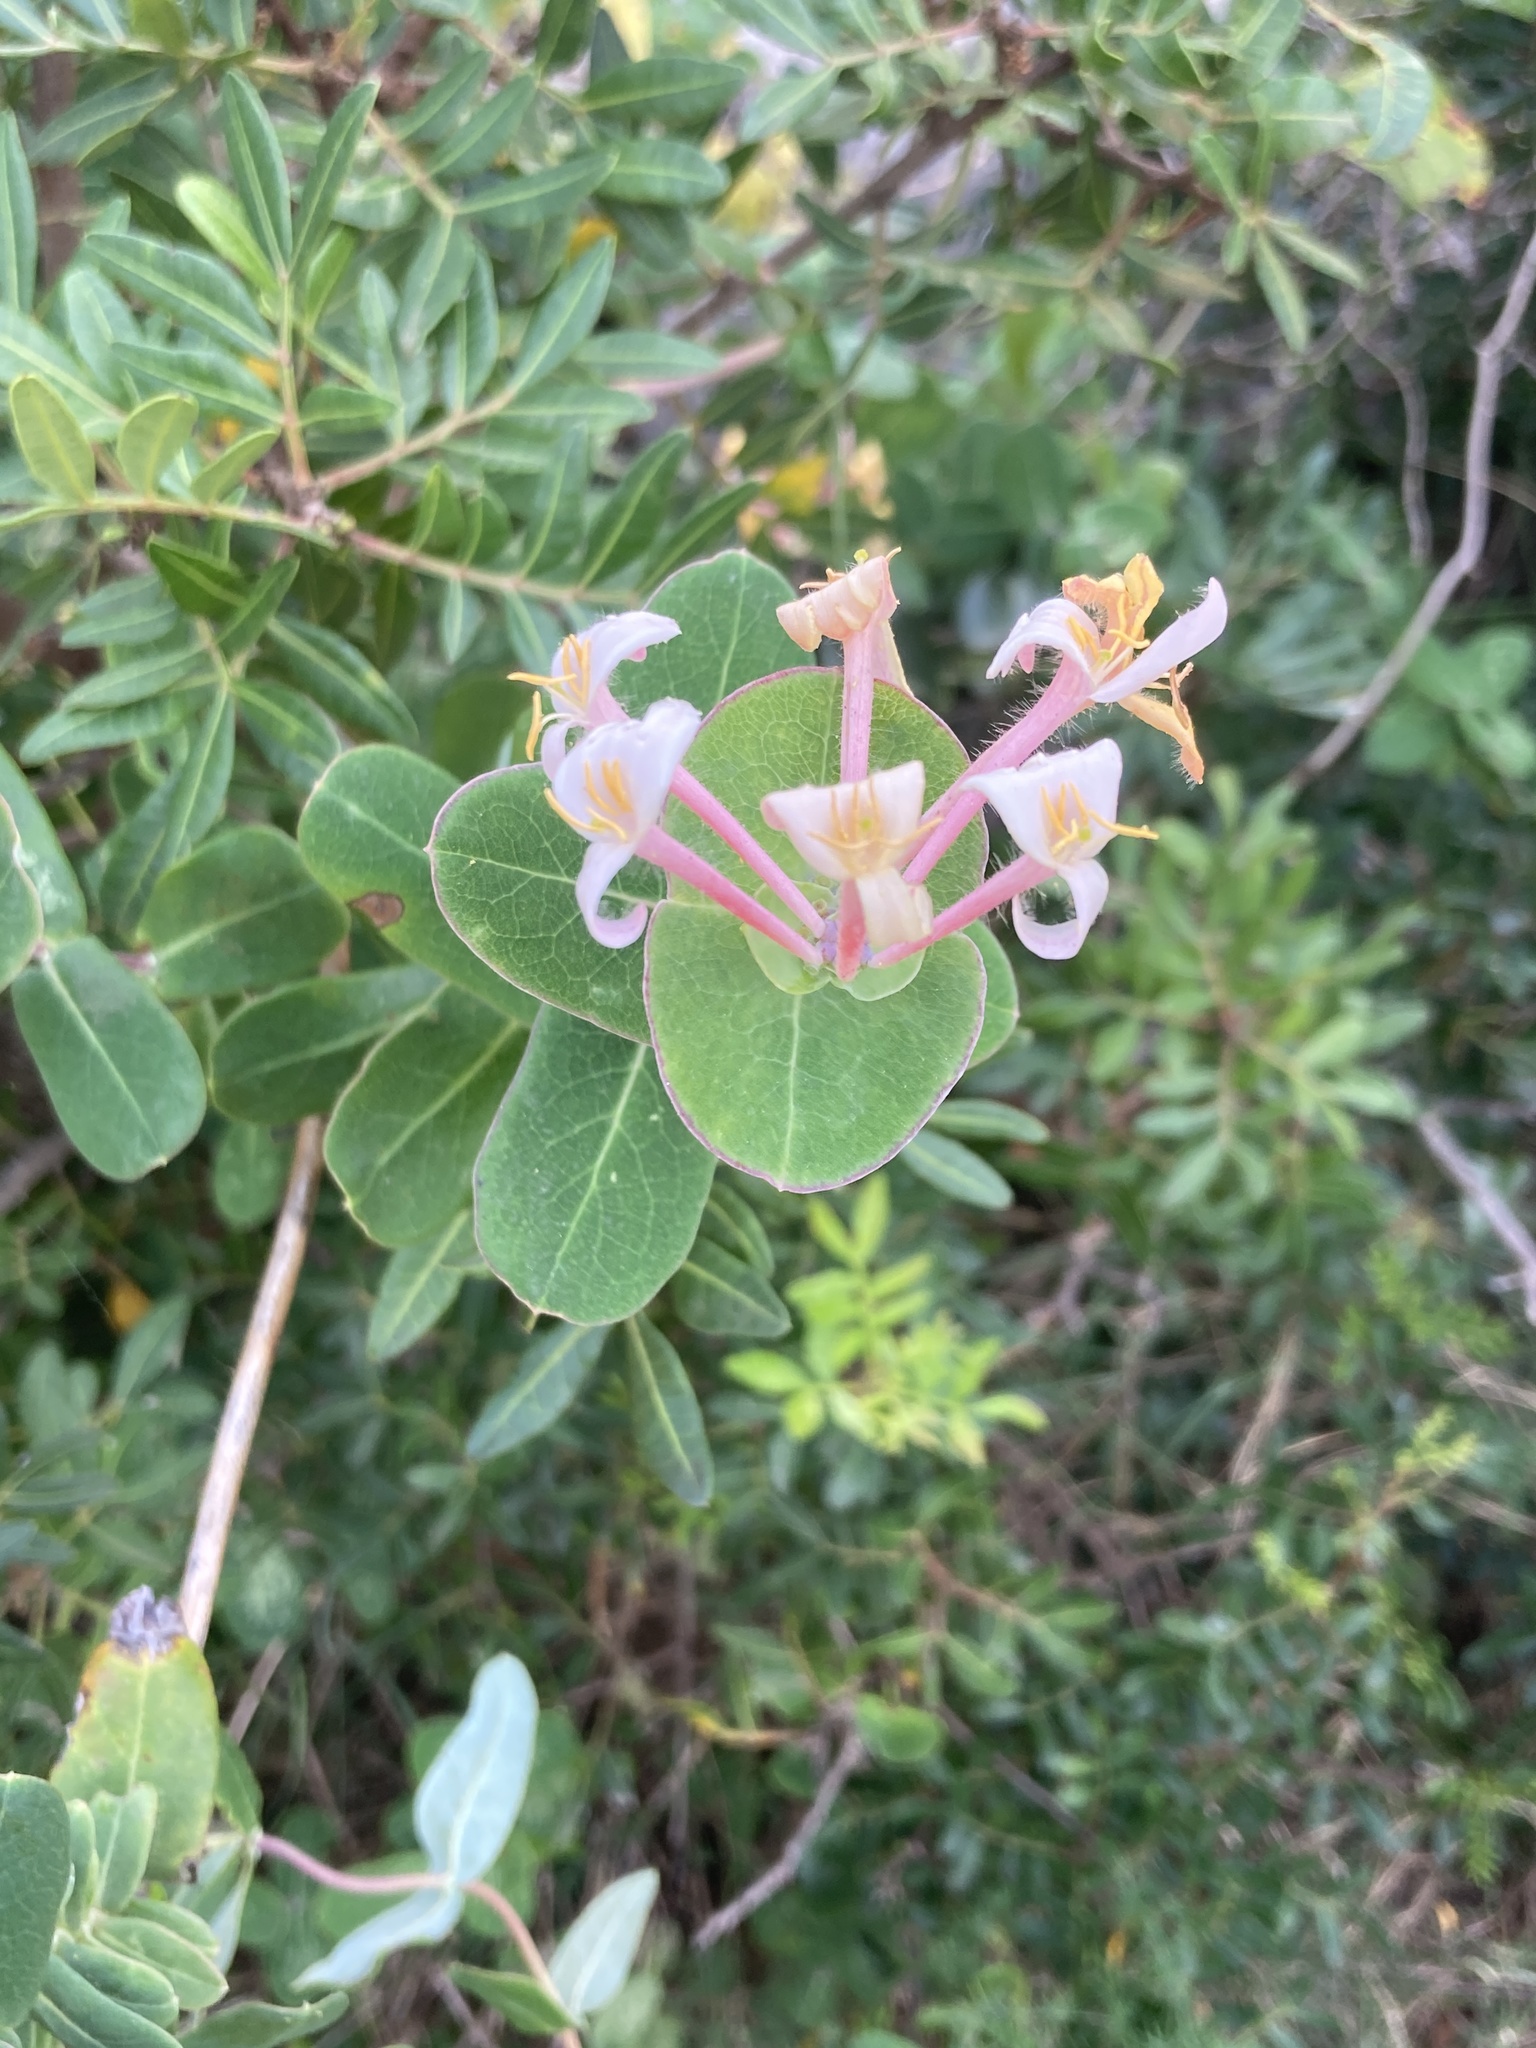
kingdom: Plantae
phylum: Tracheophyta
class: Magnoliopsida
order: Dipsacales
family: Caprifoliaceae
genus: Lonicera
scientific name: Lonicera implexa
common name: Minorca honeysuckle
